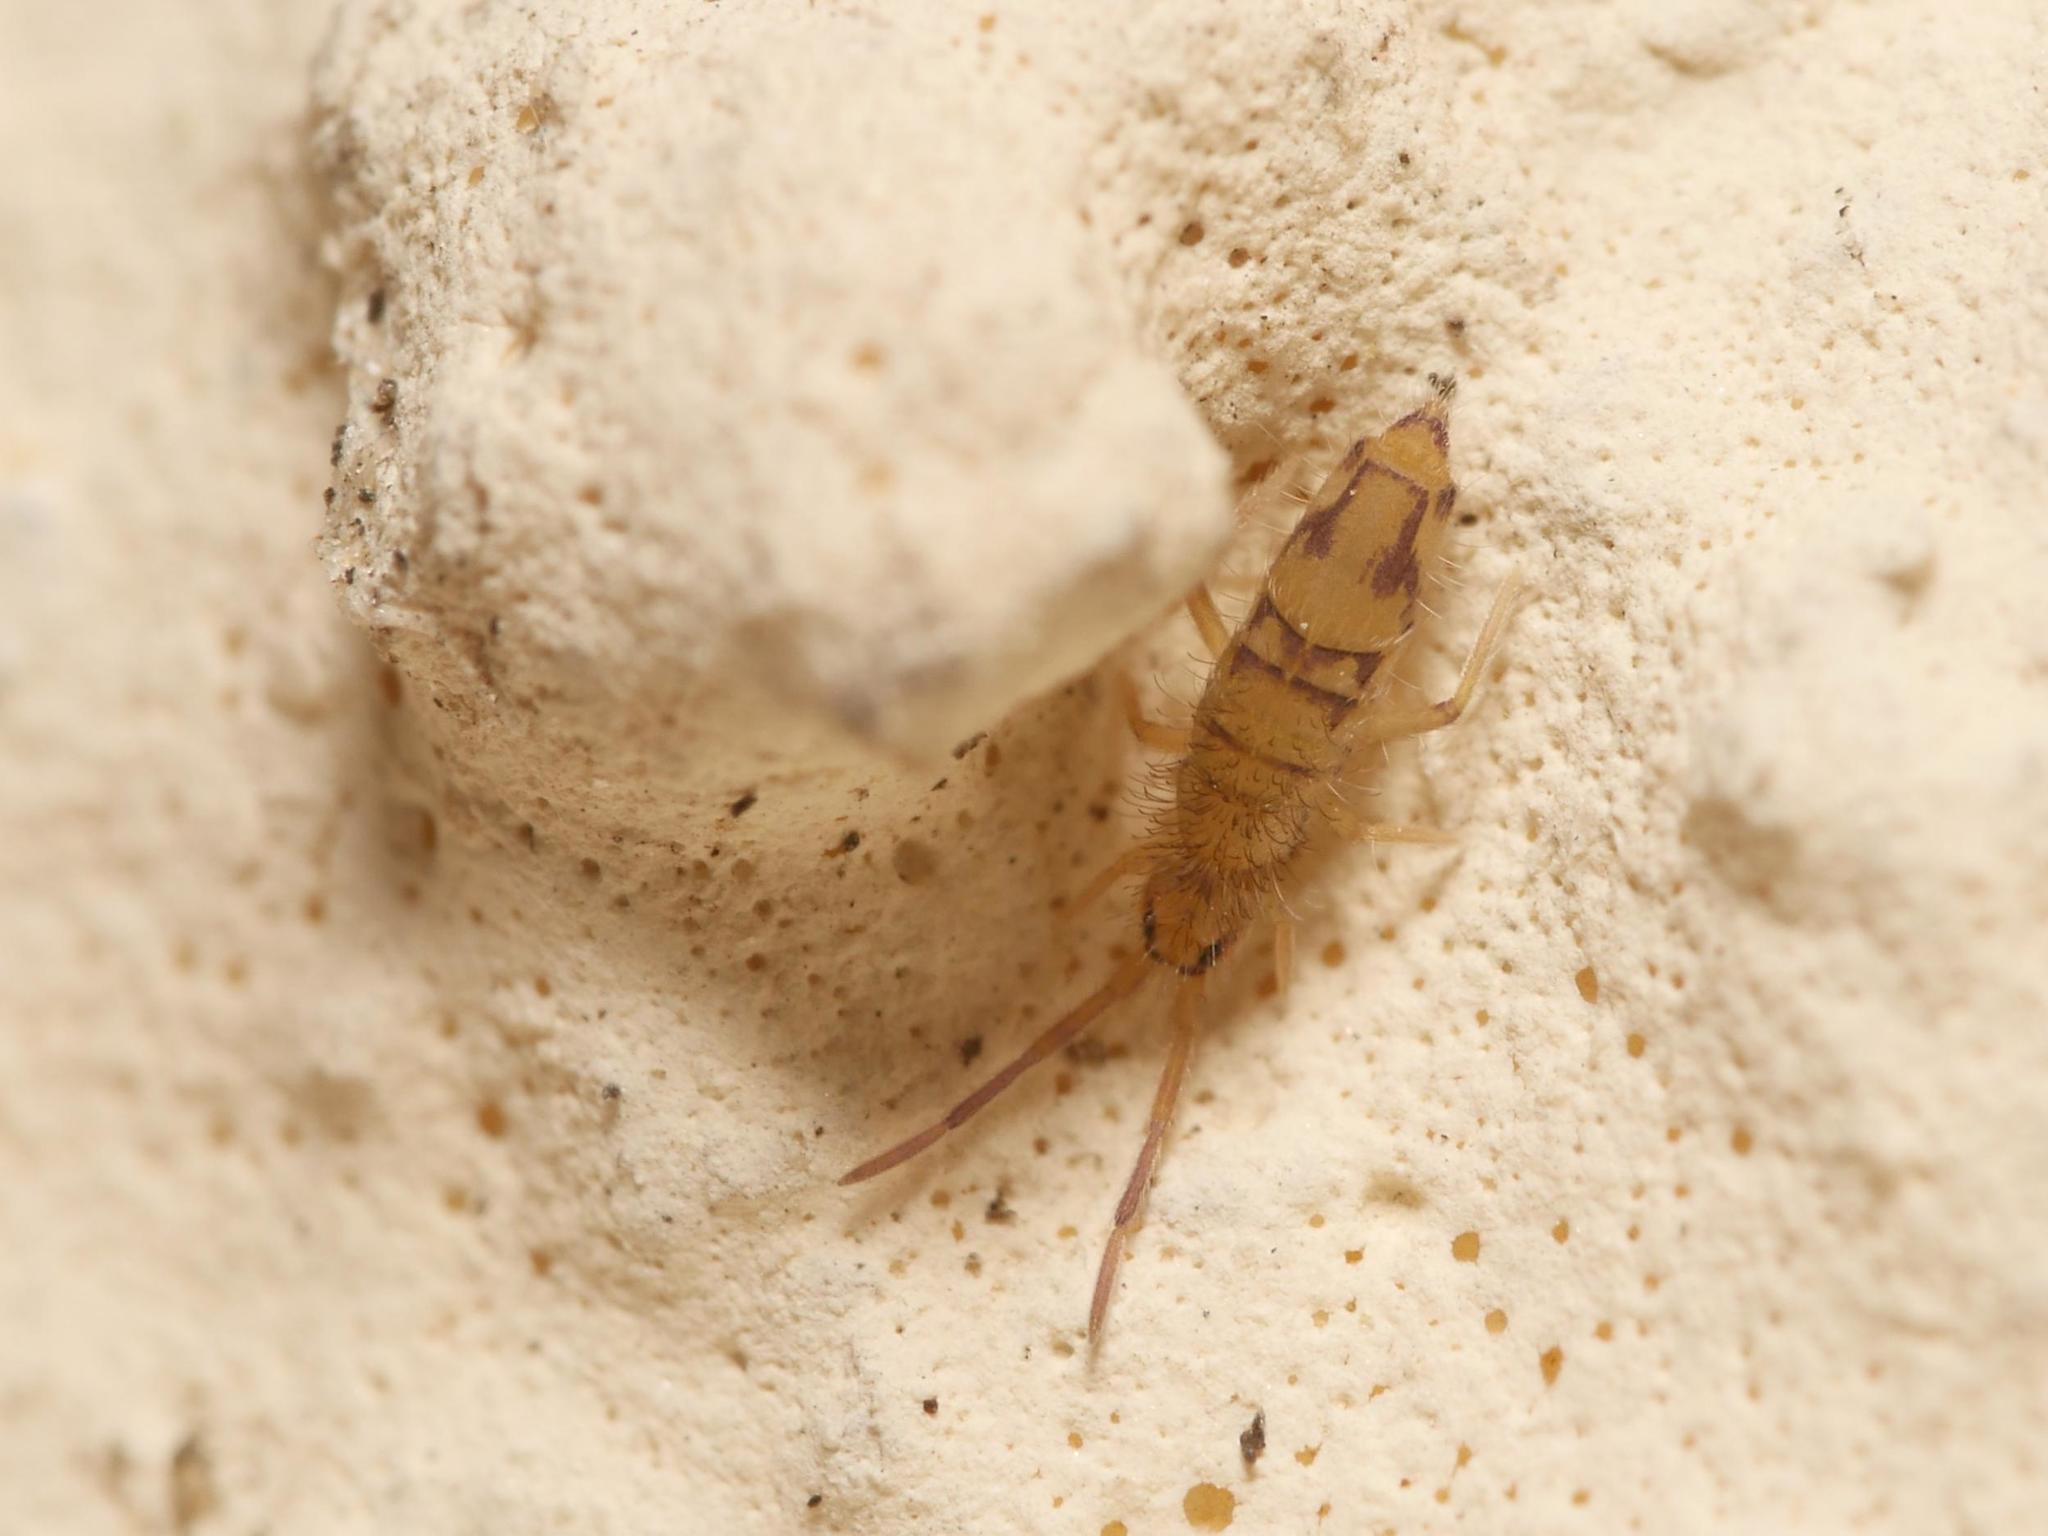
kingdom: Animalia
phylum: Arthropoda
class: Collembola
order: Entomobryomorpha
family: Entomobryidae
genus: Entomobrya
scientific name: Entomobrya nivalis
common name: Cosmopolitan springtail
